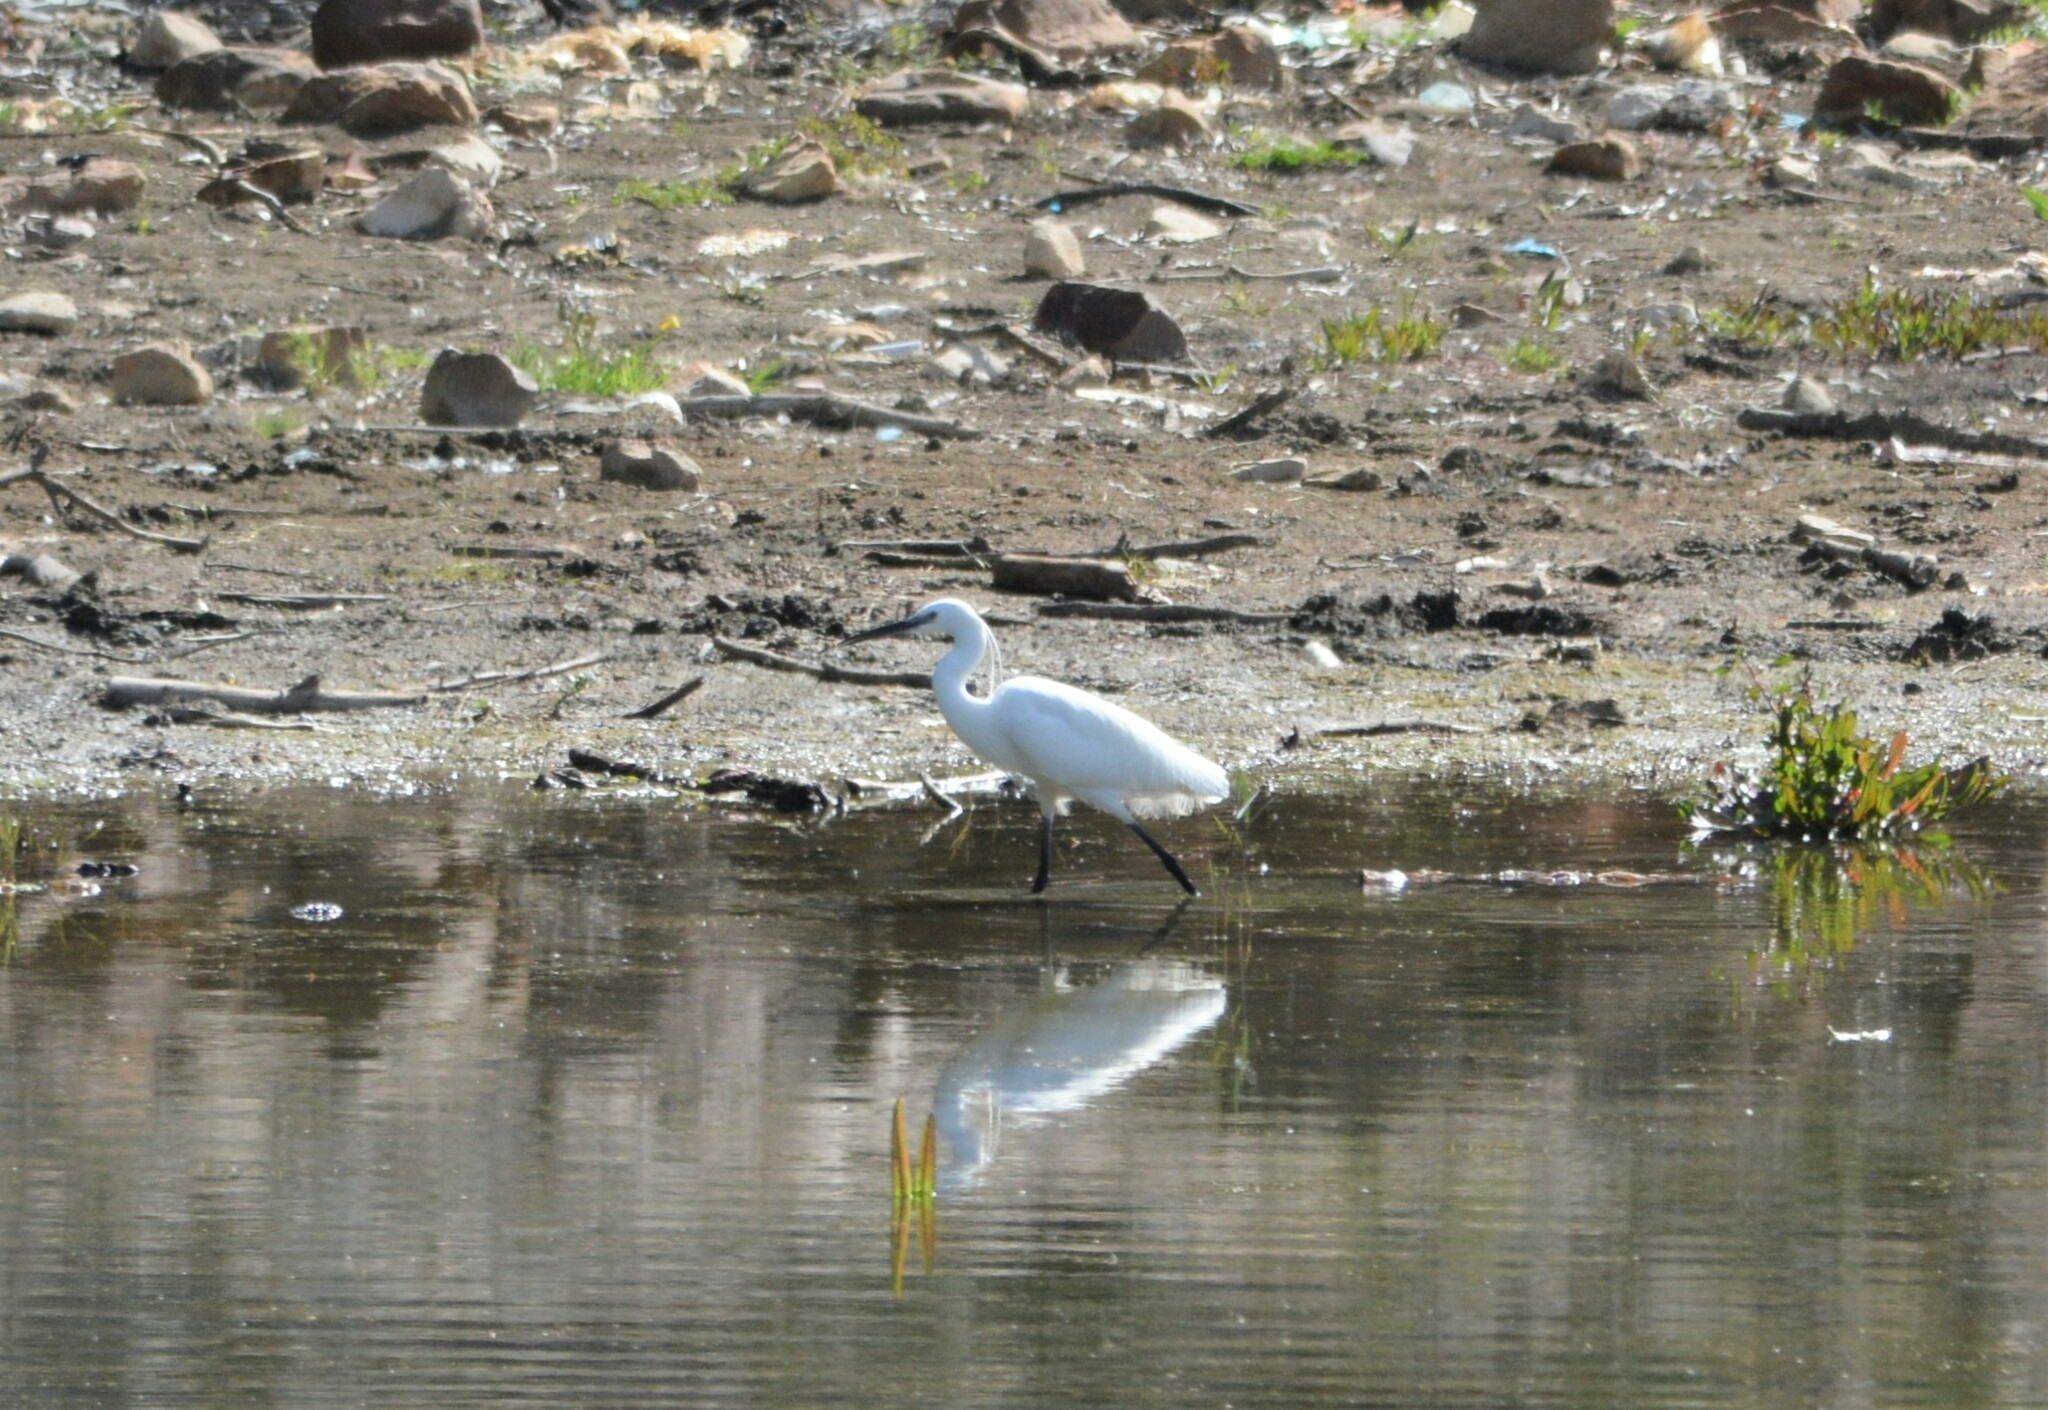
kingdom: Animalia
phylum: Chordata
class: Aves
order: Pelecaniformes
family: Ardeidae
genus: Egretta
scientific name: Egretta garzetta
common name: Little egret
